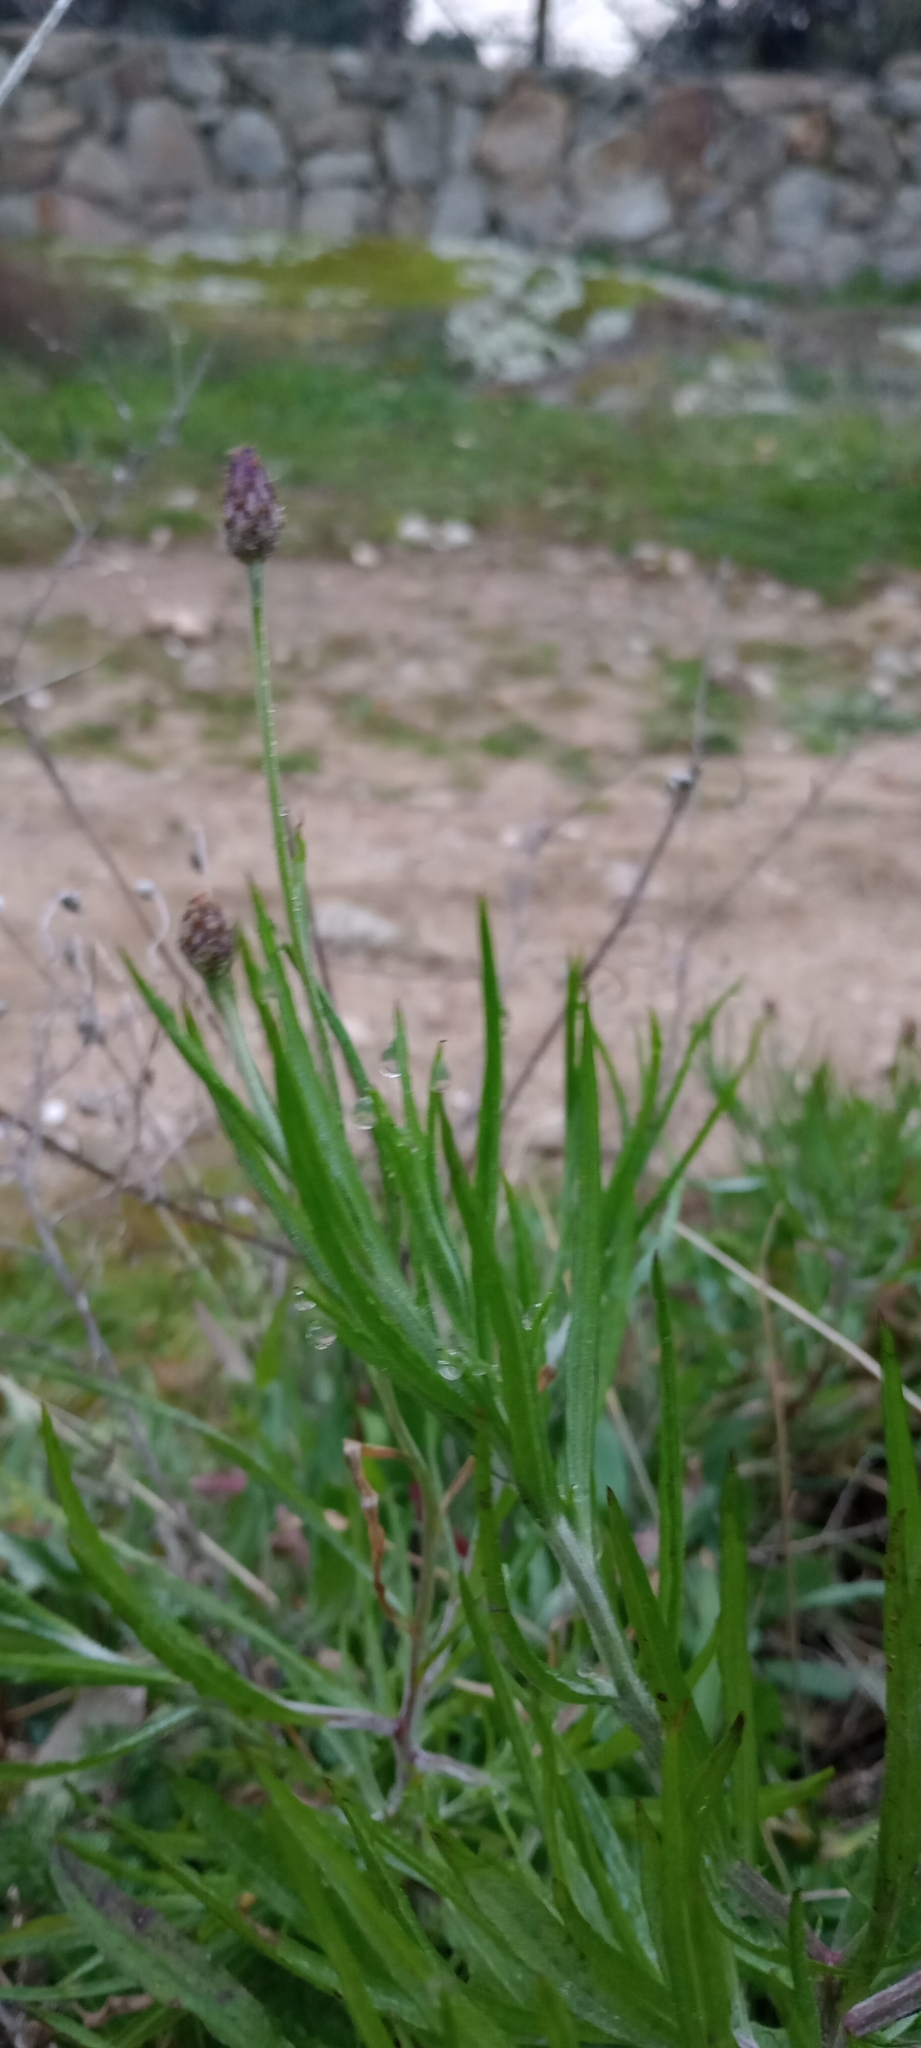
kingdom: Plantae
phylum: Tracheophyta
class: Magnoliopsida
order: Asterales
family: Asteraceae
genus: Centaurea
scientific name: Centaurea cyanus
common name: Cornflower
